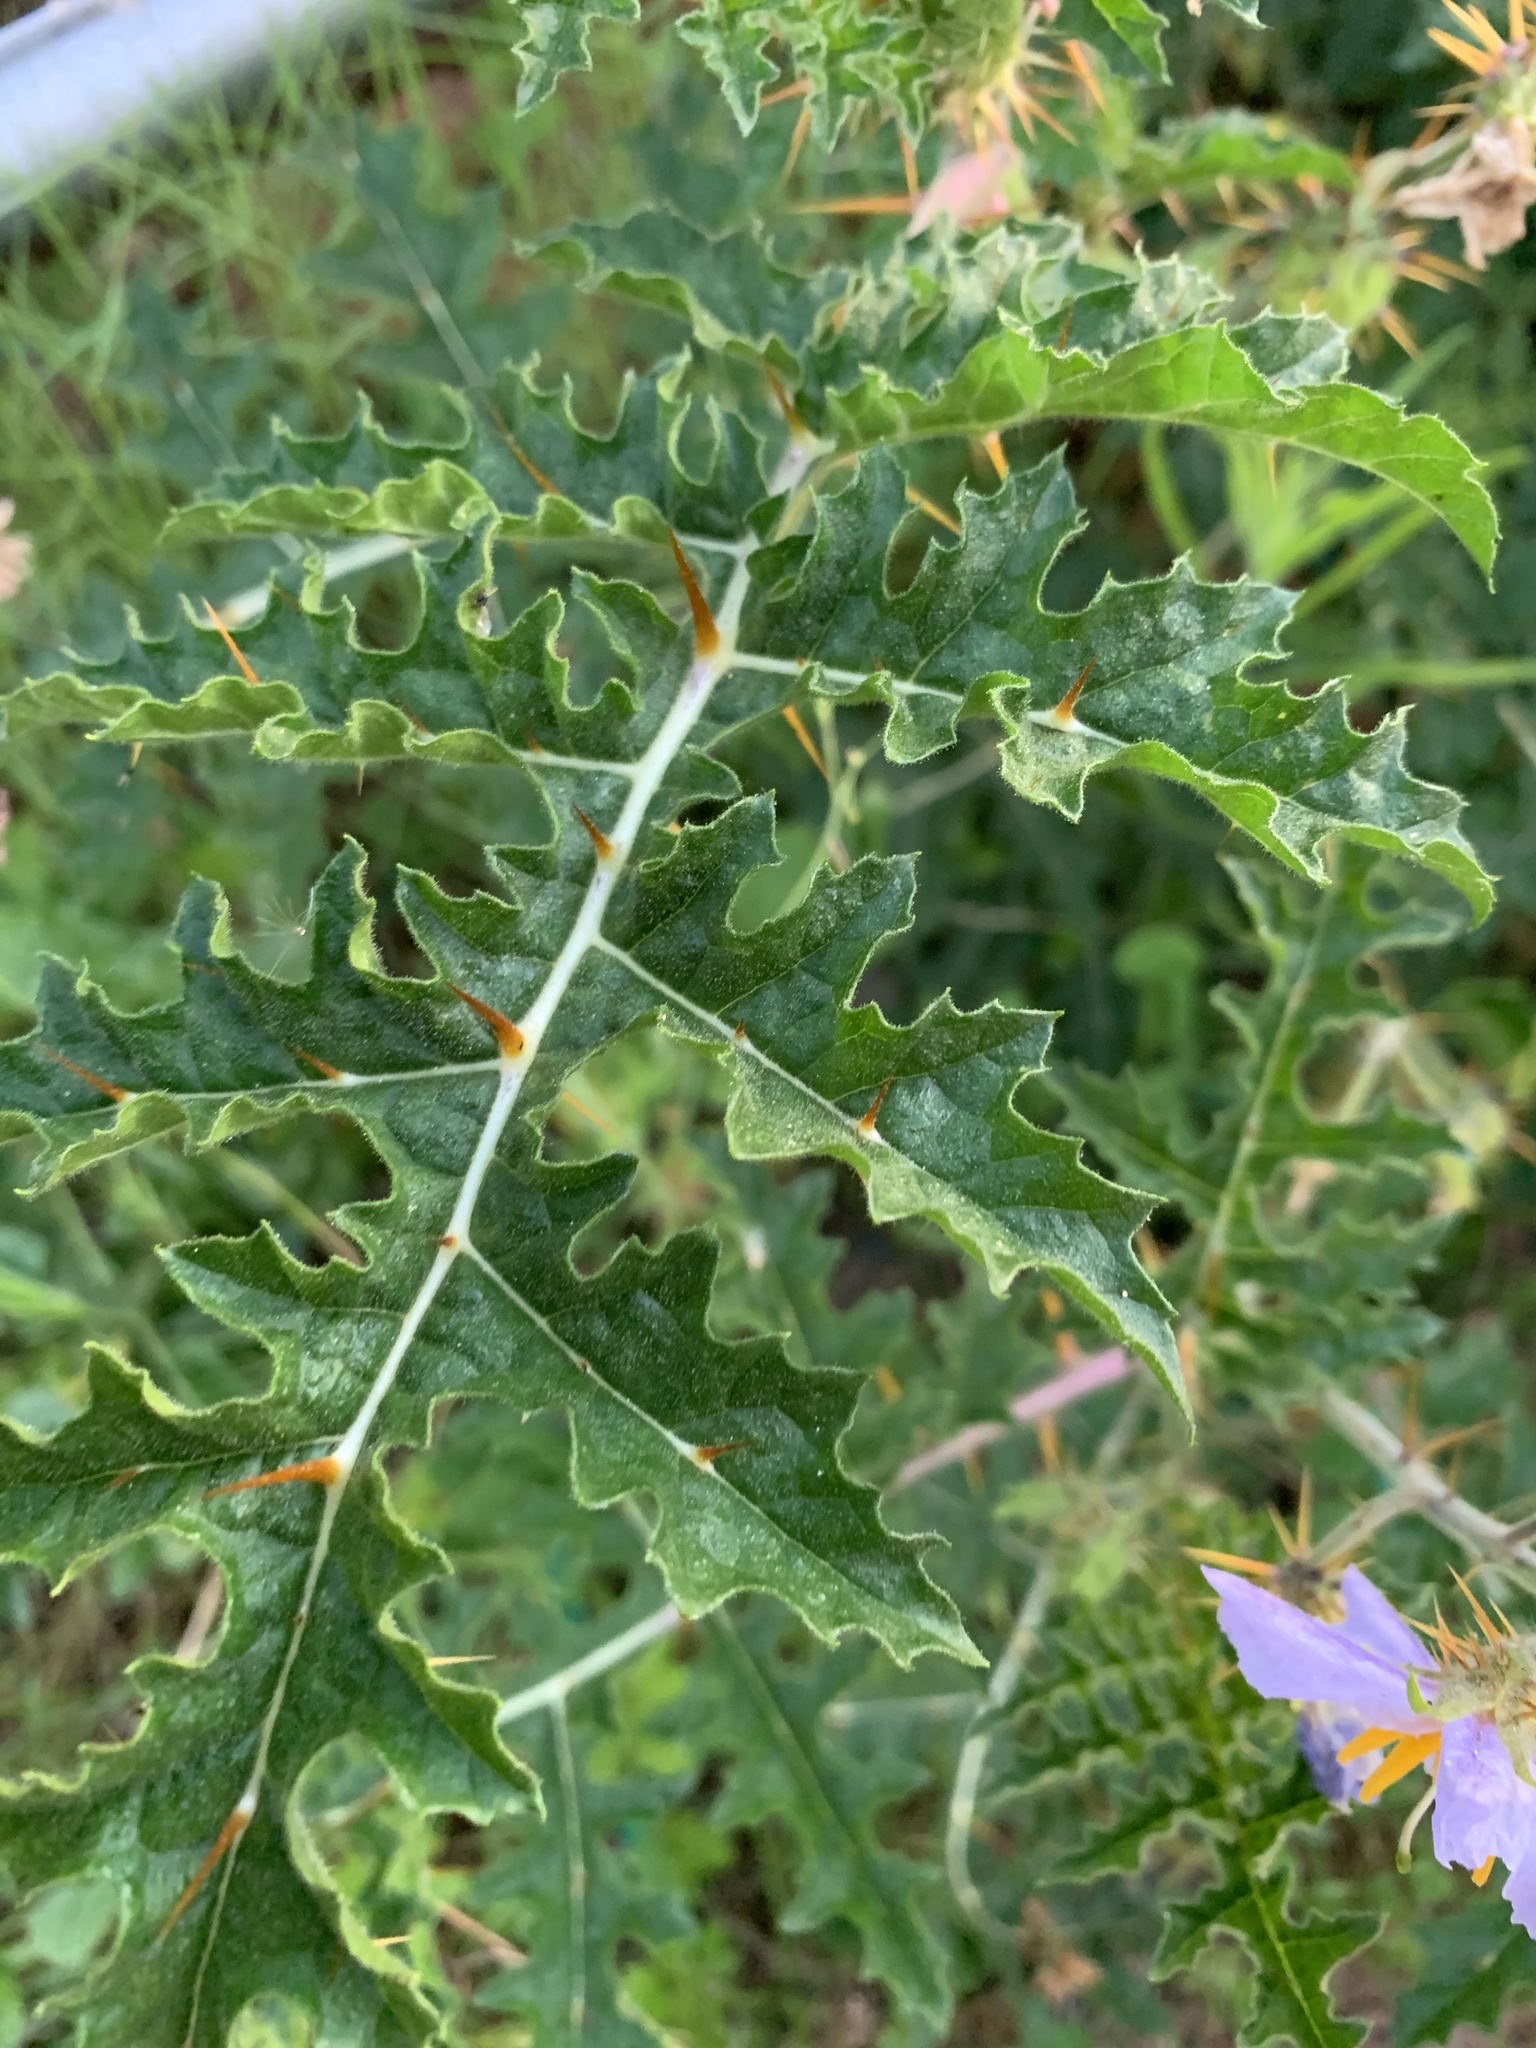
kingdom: Plantae
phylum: Tracheophyta
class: Magnoliopsida
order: Solanales
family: Solanaceae
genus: Solanum
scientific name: Solanum sisymbriifolium
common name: Red buffalo-bur
